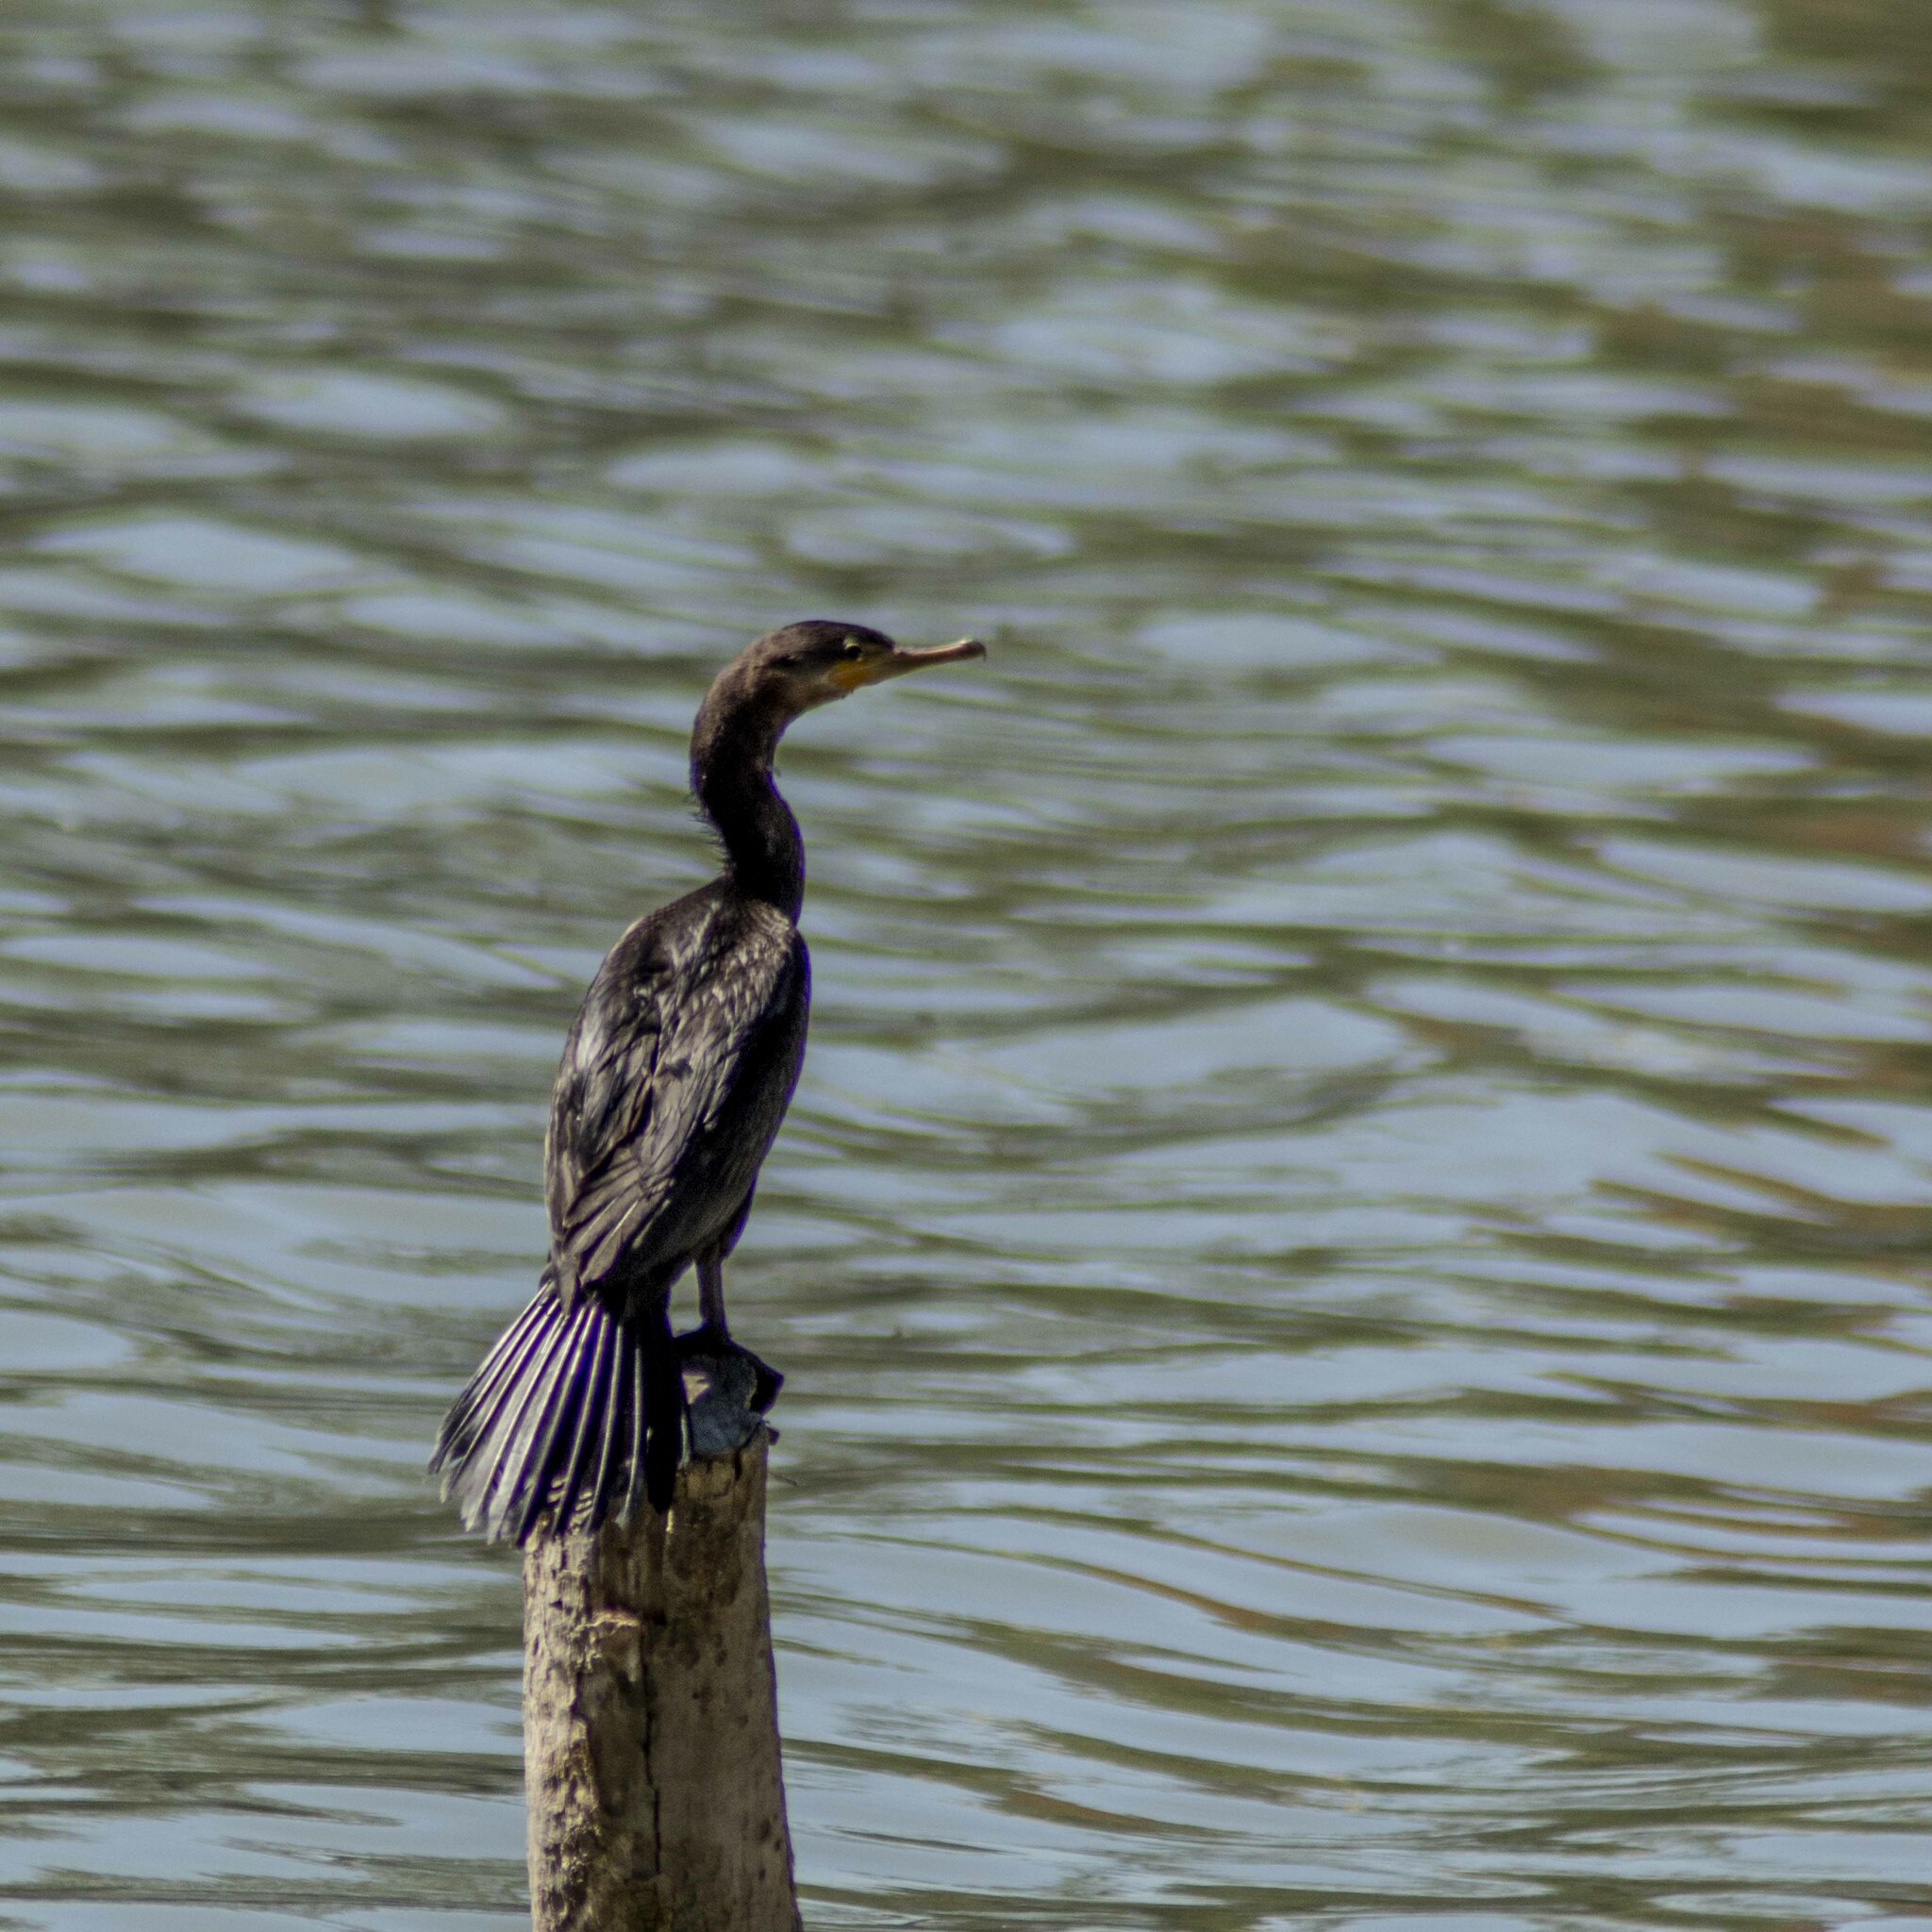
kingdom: Animalia
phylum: Chordata
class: Aves
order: Suliformes
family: Phalacrocoracidae
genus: Phalacrocorax
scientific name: Phalacrocorax brasilianus
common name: Neotropic cormorant
